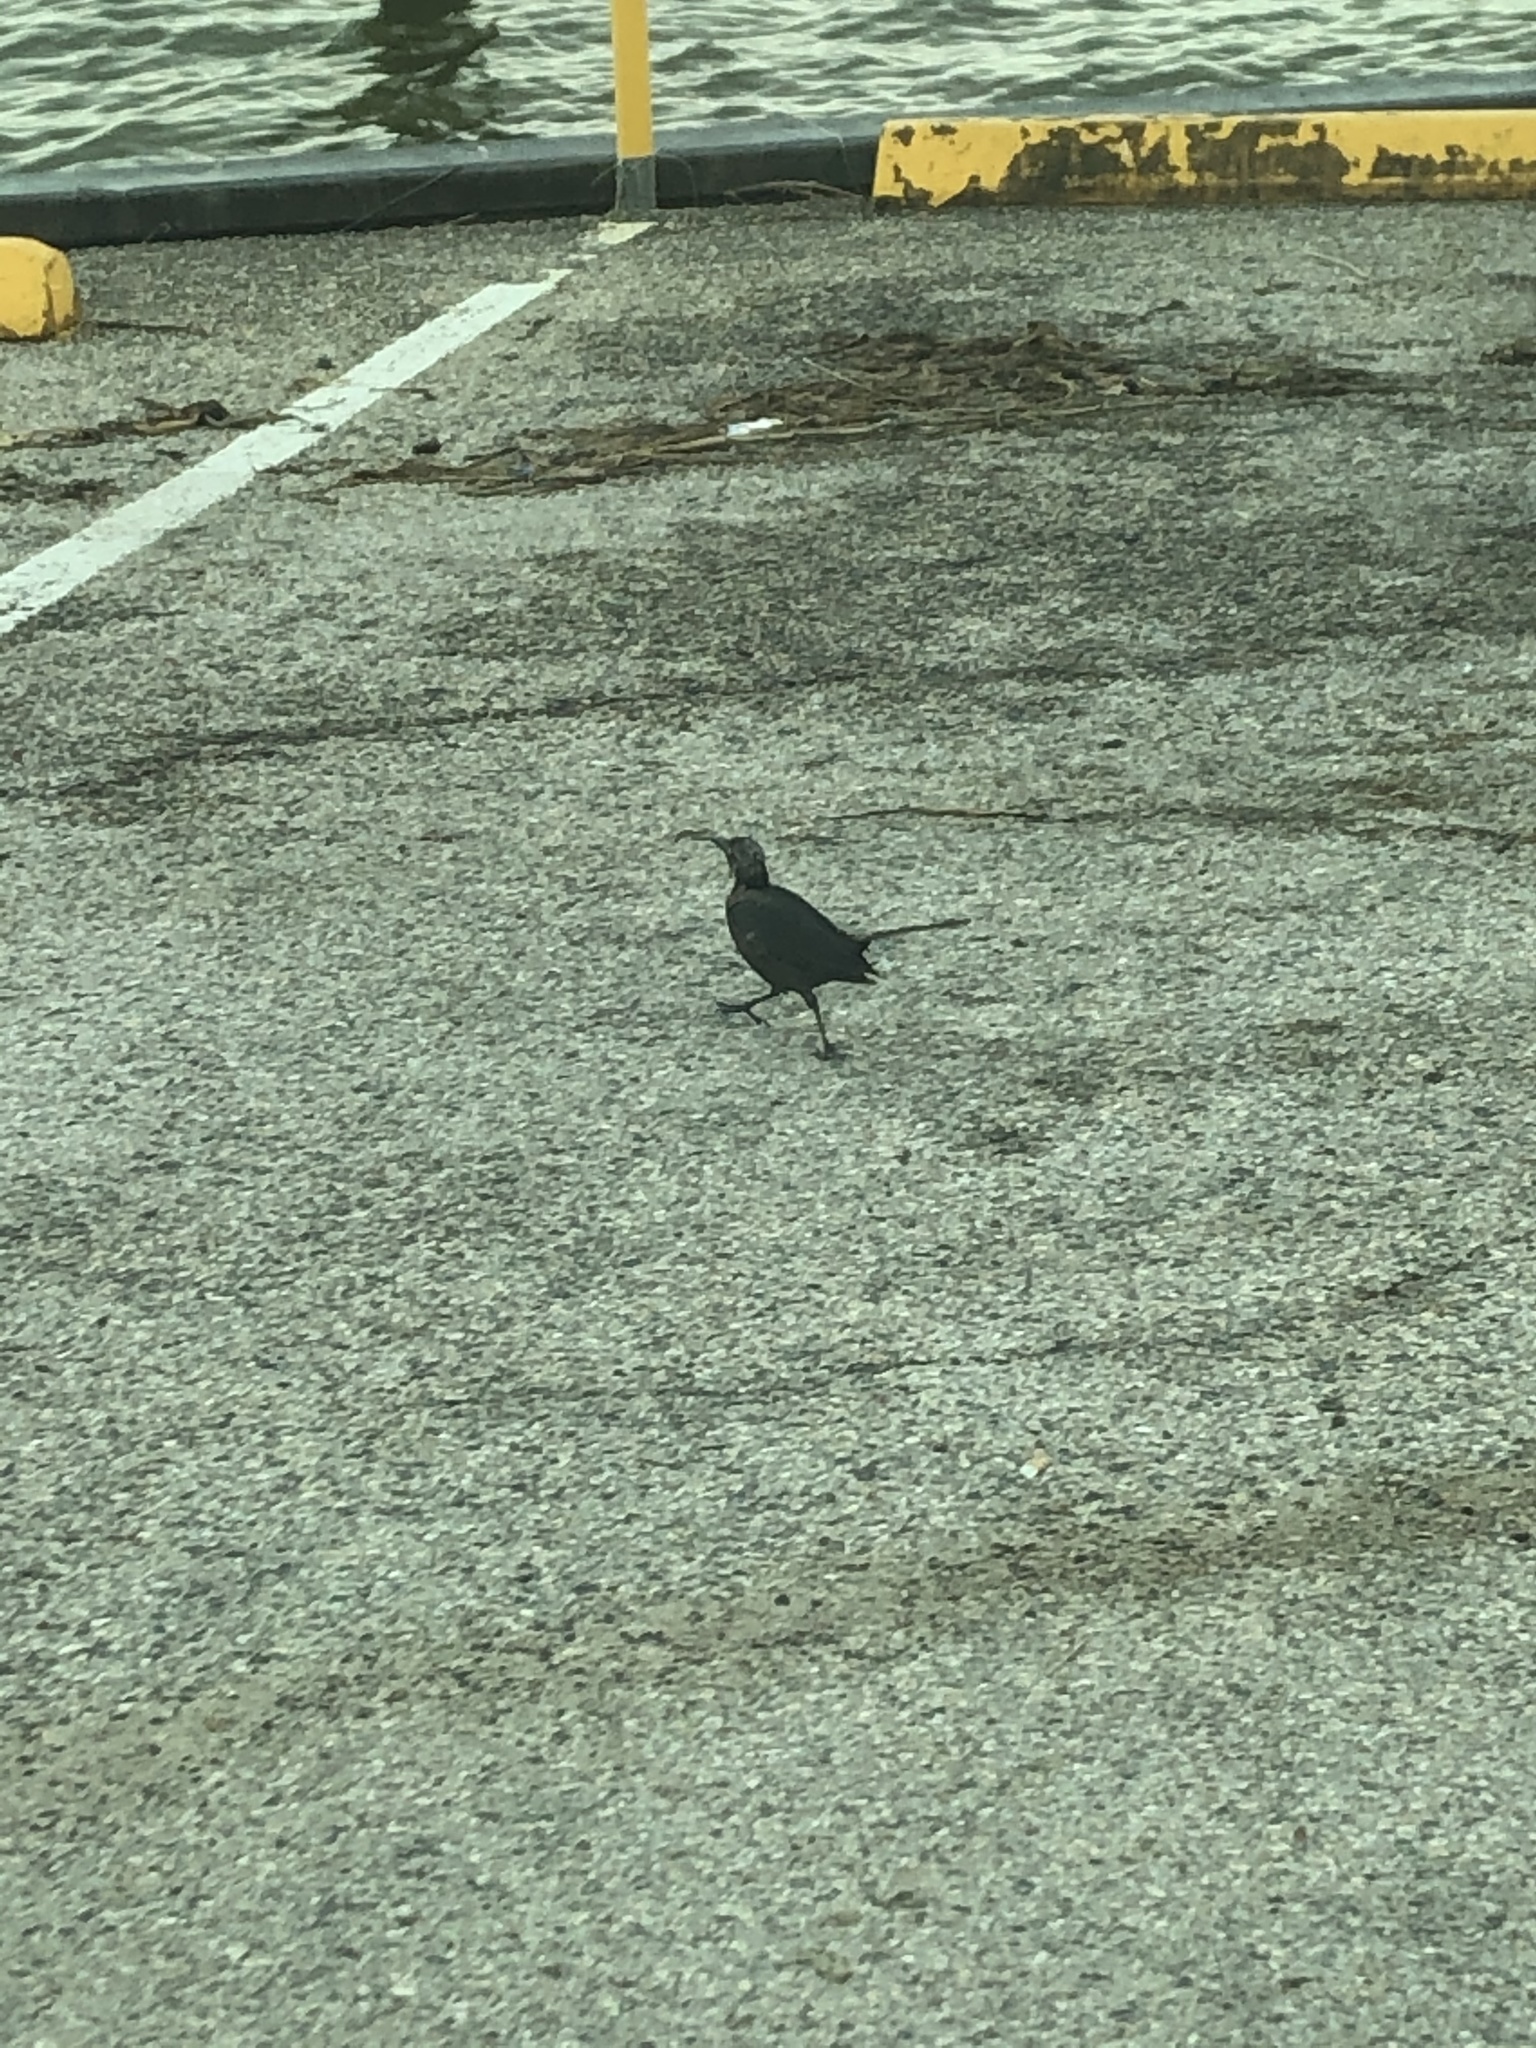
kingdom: Animalia
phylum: Chordata
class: Aves
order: Passeriformes
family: Icteridae
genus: Quiscalus
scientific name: Quiscalus mexicanus
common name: Great-tailed grackle
